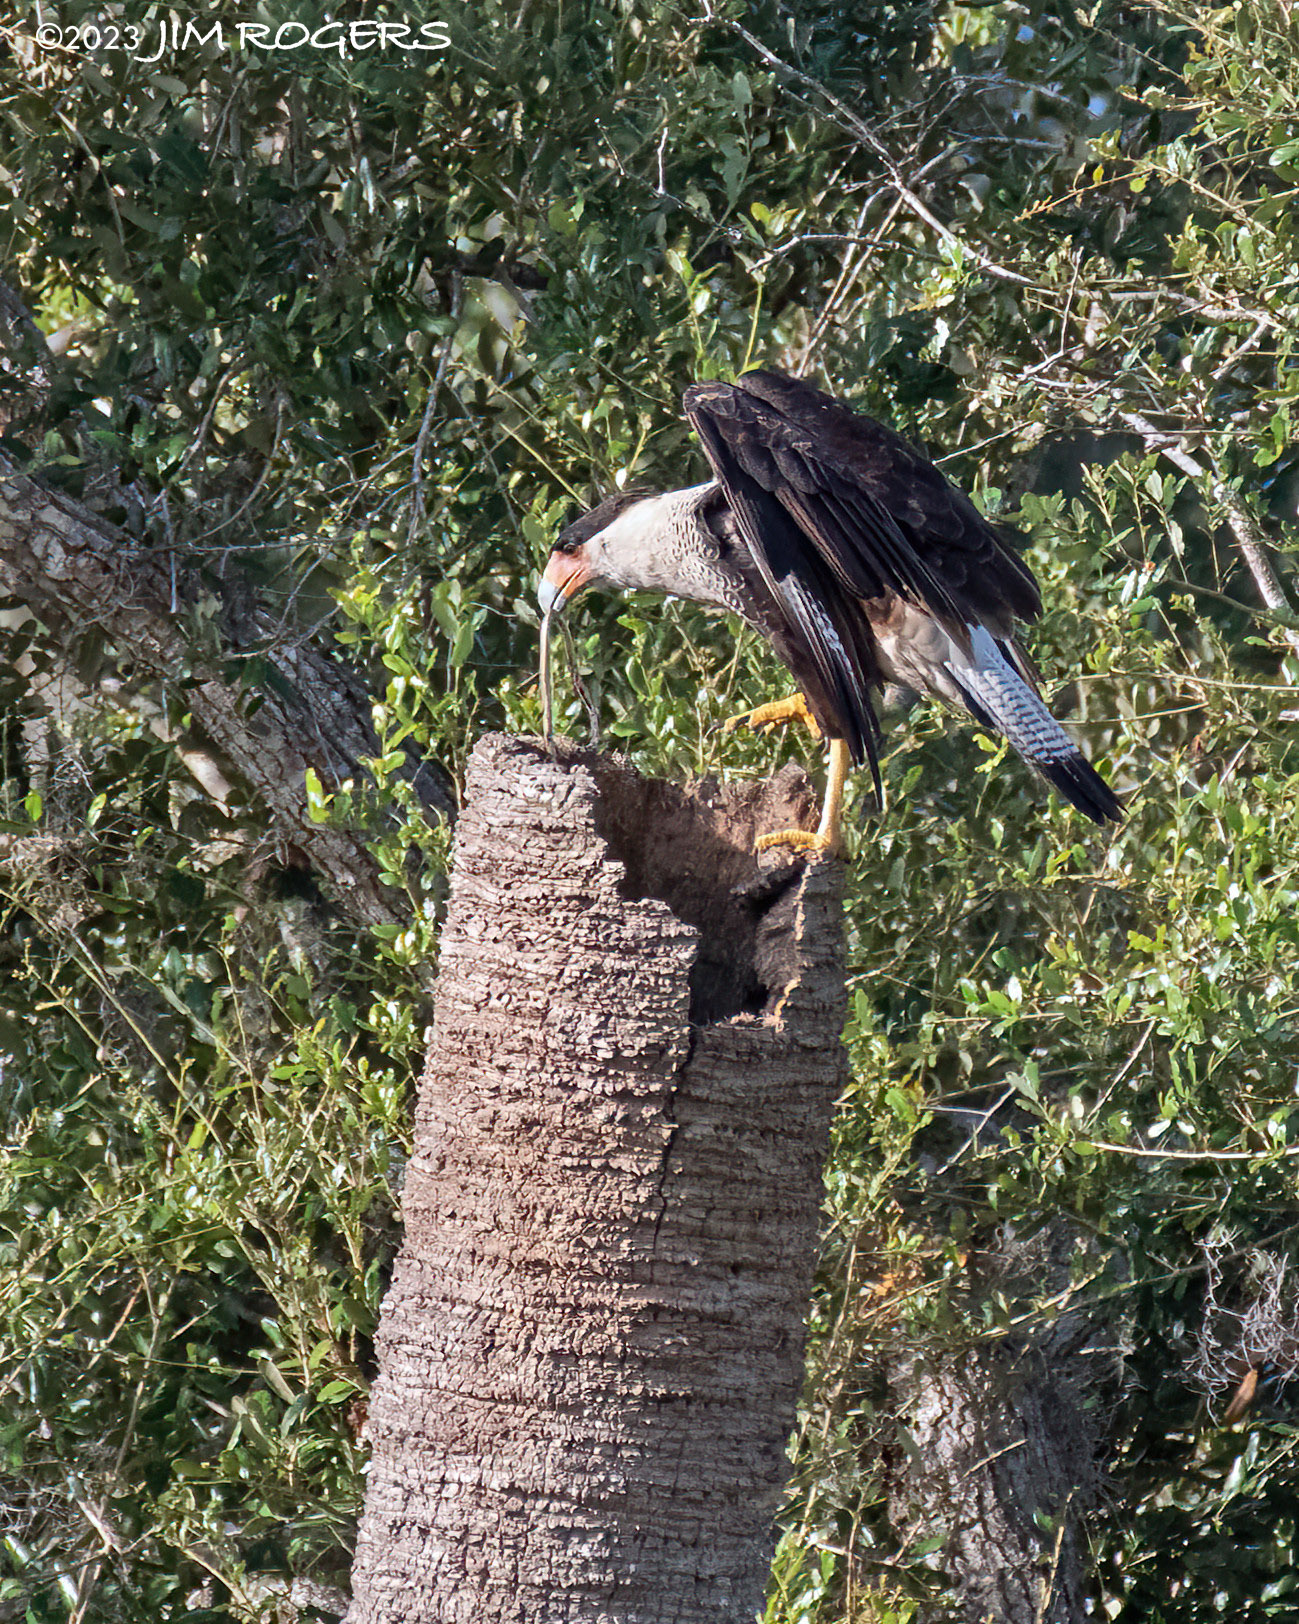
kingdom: Animalia
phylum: Chordata
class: Aves
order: Falconiformes
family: Falconidae
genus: Caracara
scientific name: Caracara plancus
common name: Southern caracara
